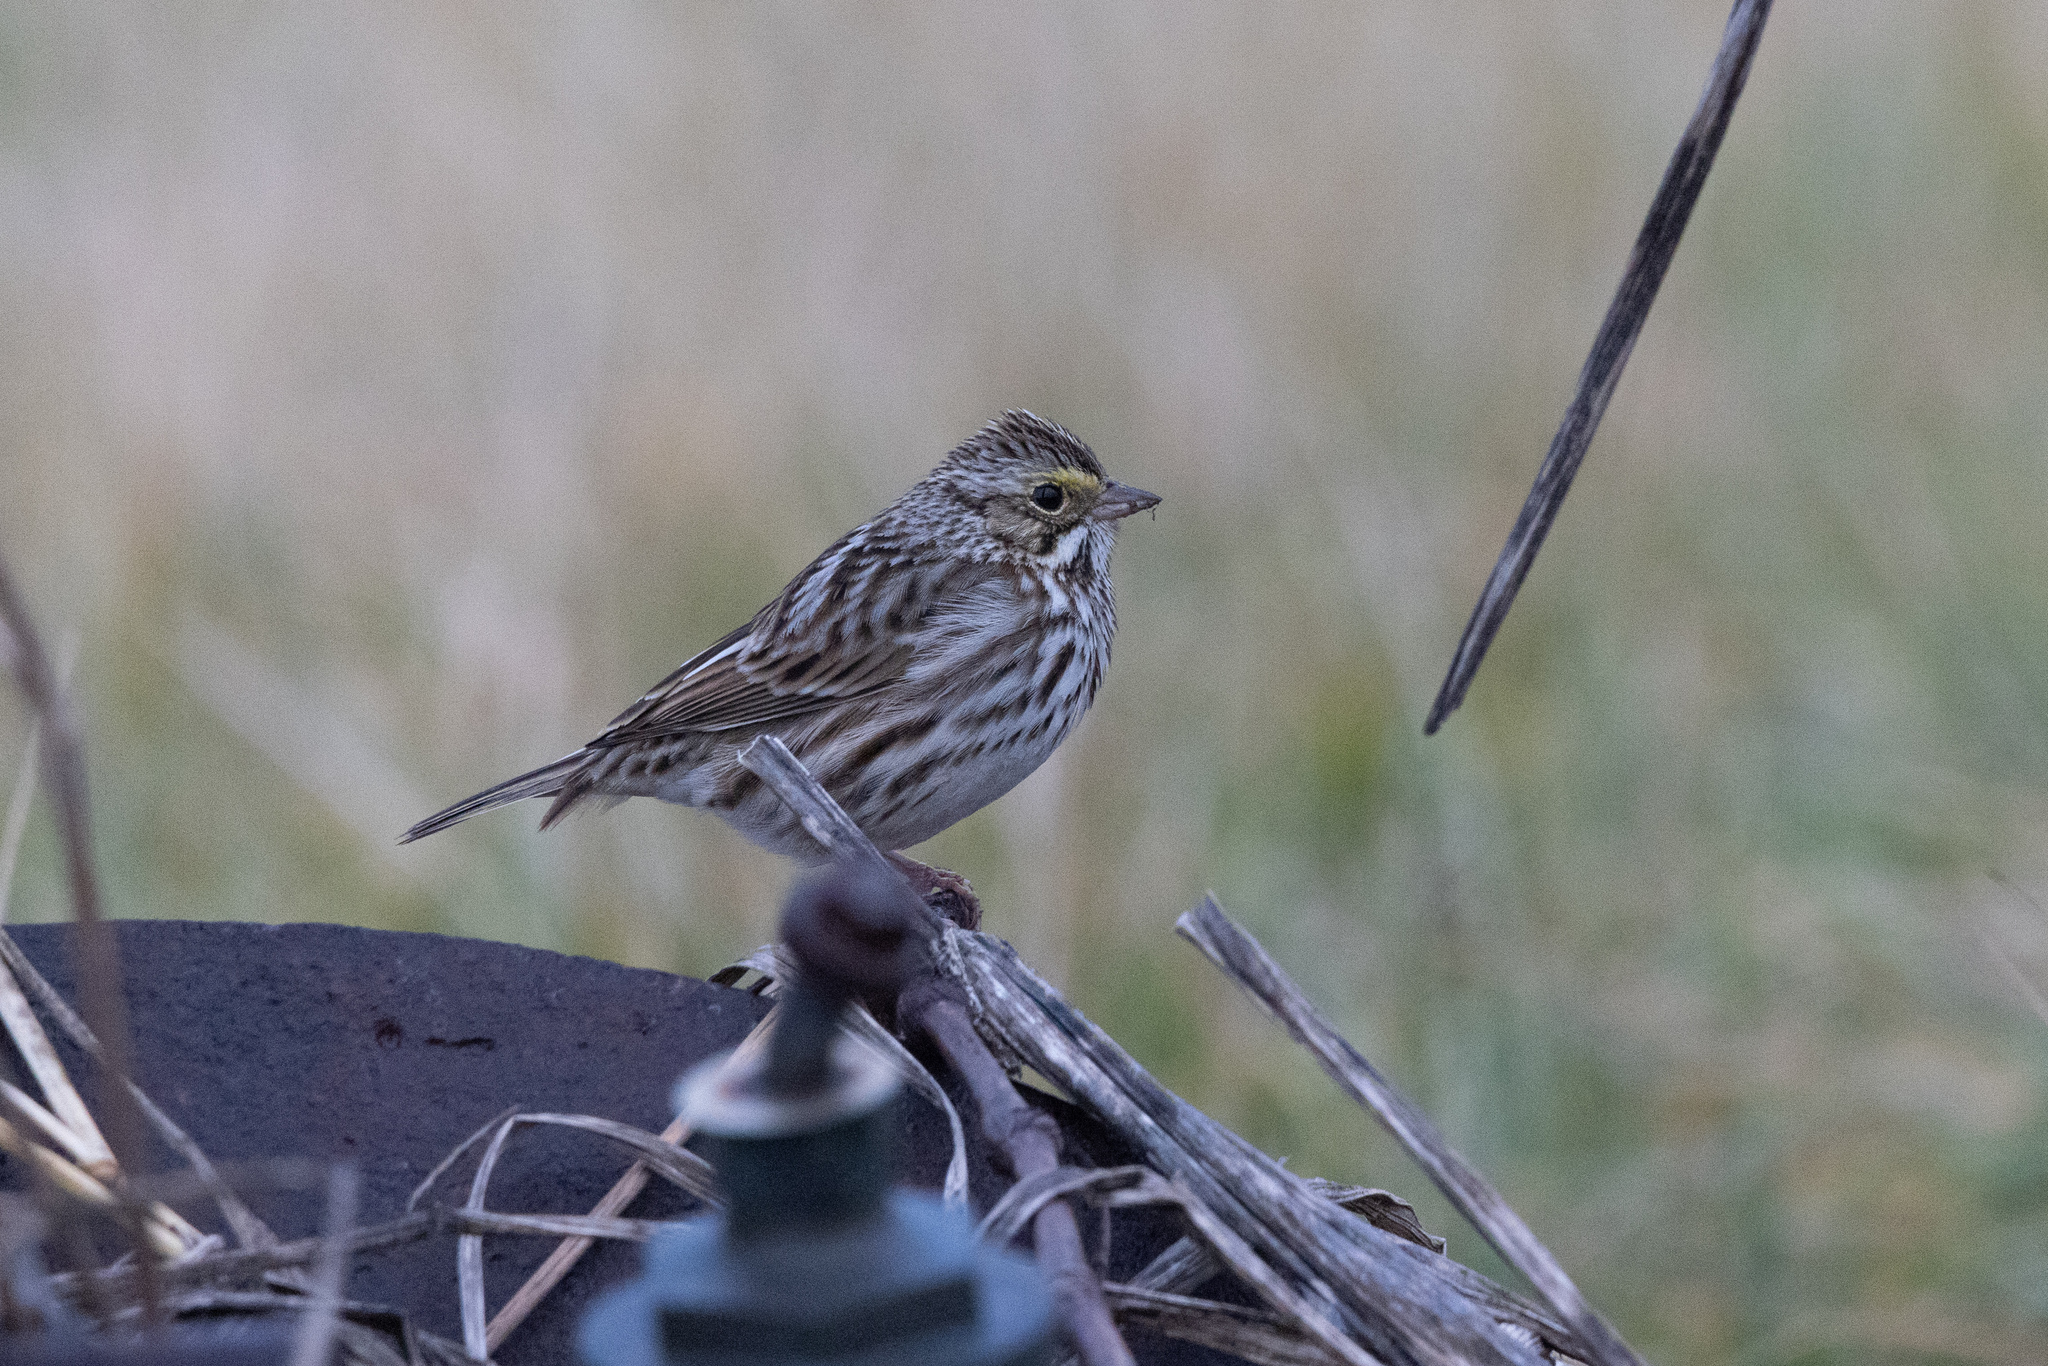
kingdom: Animalia
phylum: Chordata
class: Aves
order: Passeriformes
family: Passerellidae
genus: Passerculus
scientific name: Passerculus sandwichensis
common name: Savannah sparrow
